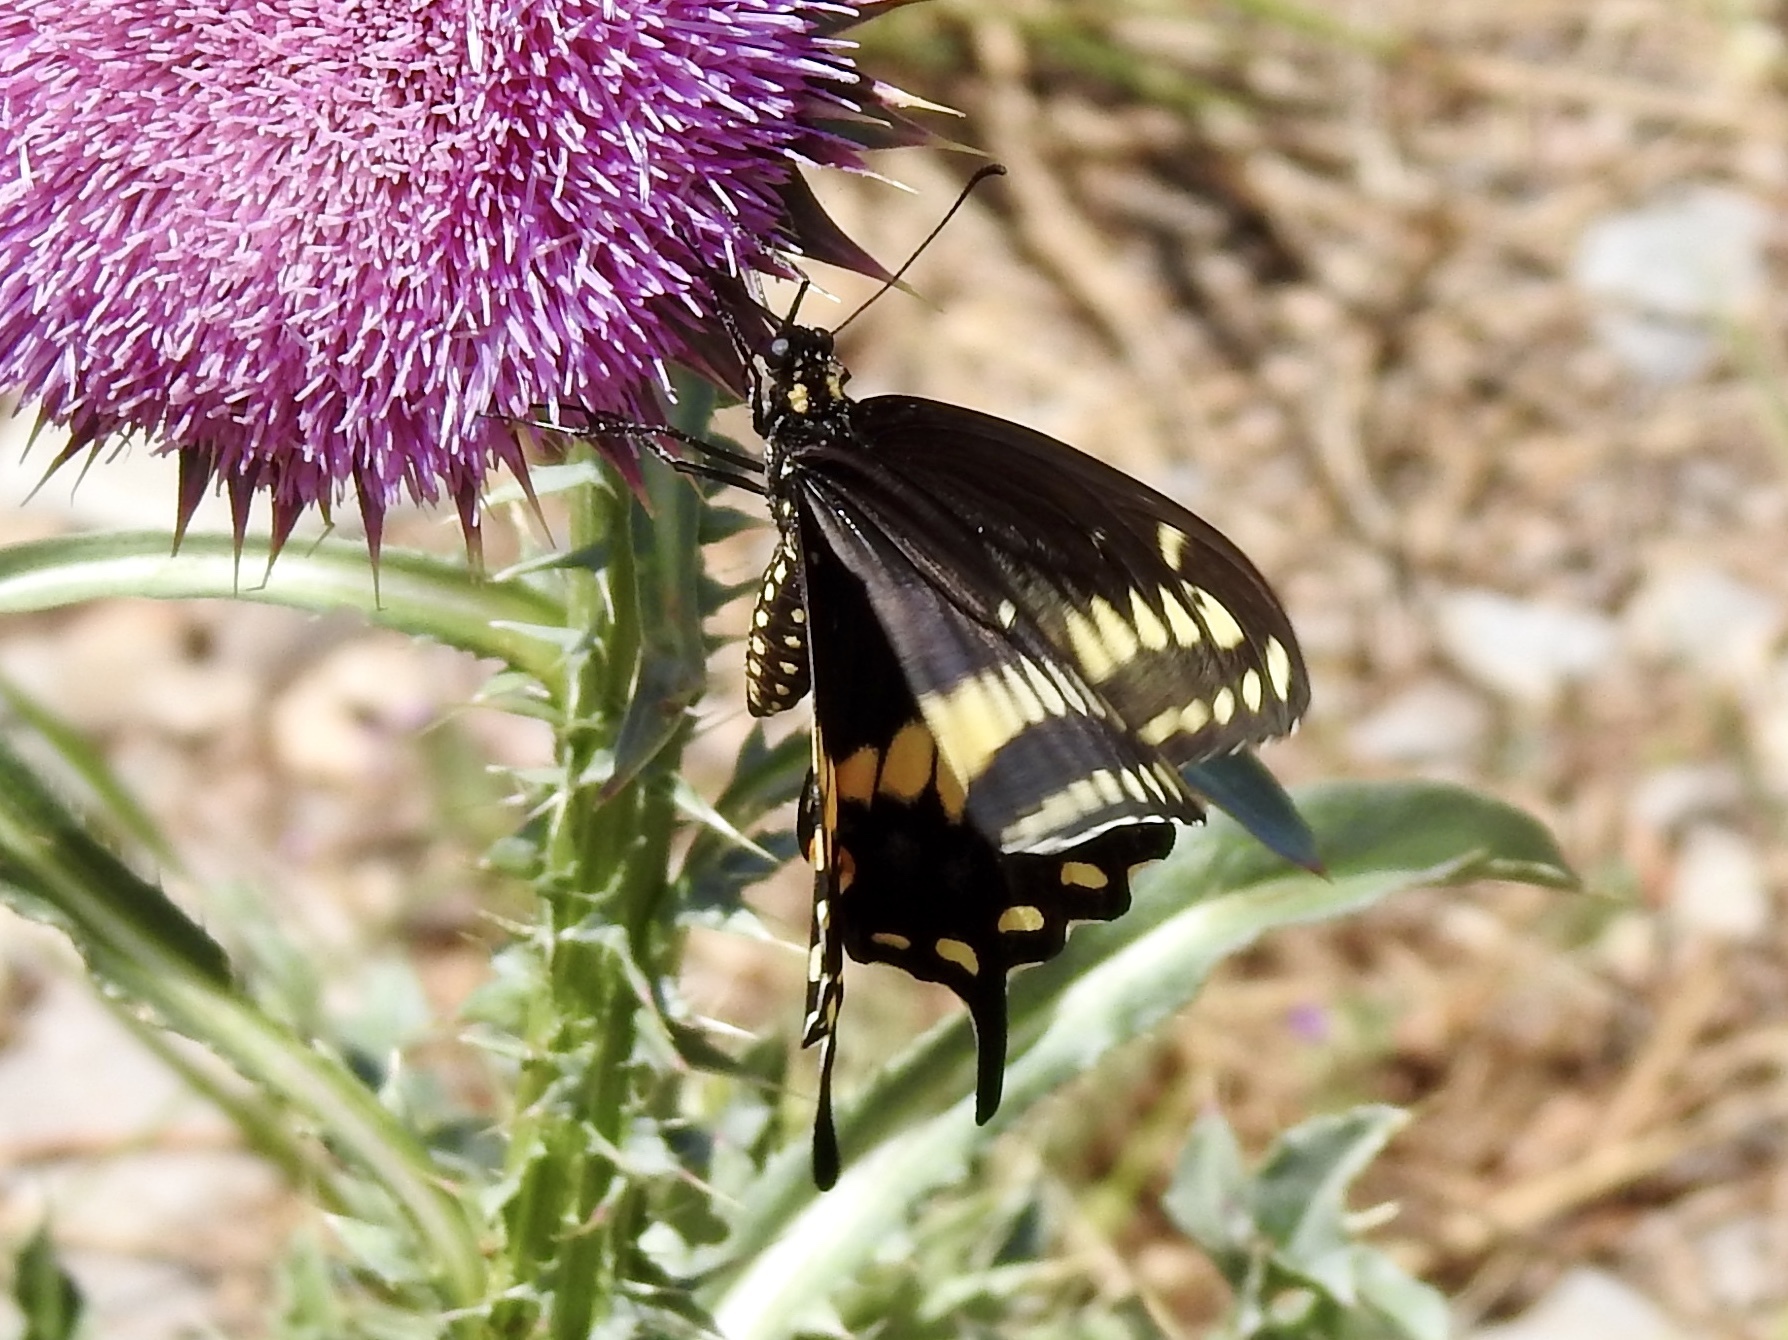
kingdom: Animalia
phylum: Arthropoda
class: Insecta
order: Lepidoptera
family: Papilionidae
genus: Papilio
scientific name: Papilio polyxenes
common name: Black swallowtail
